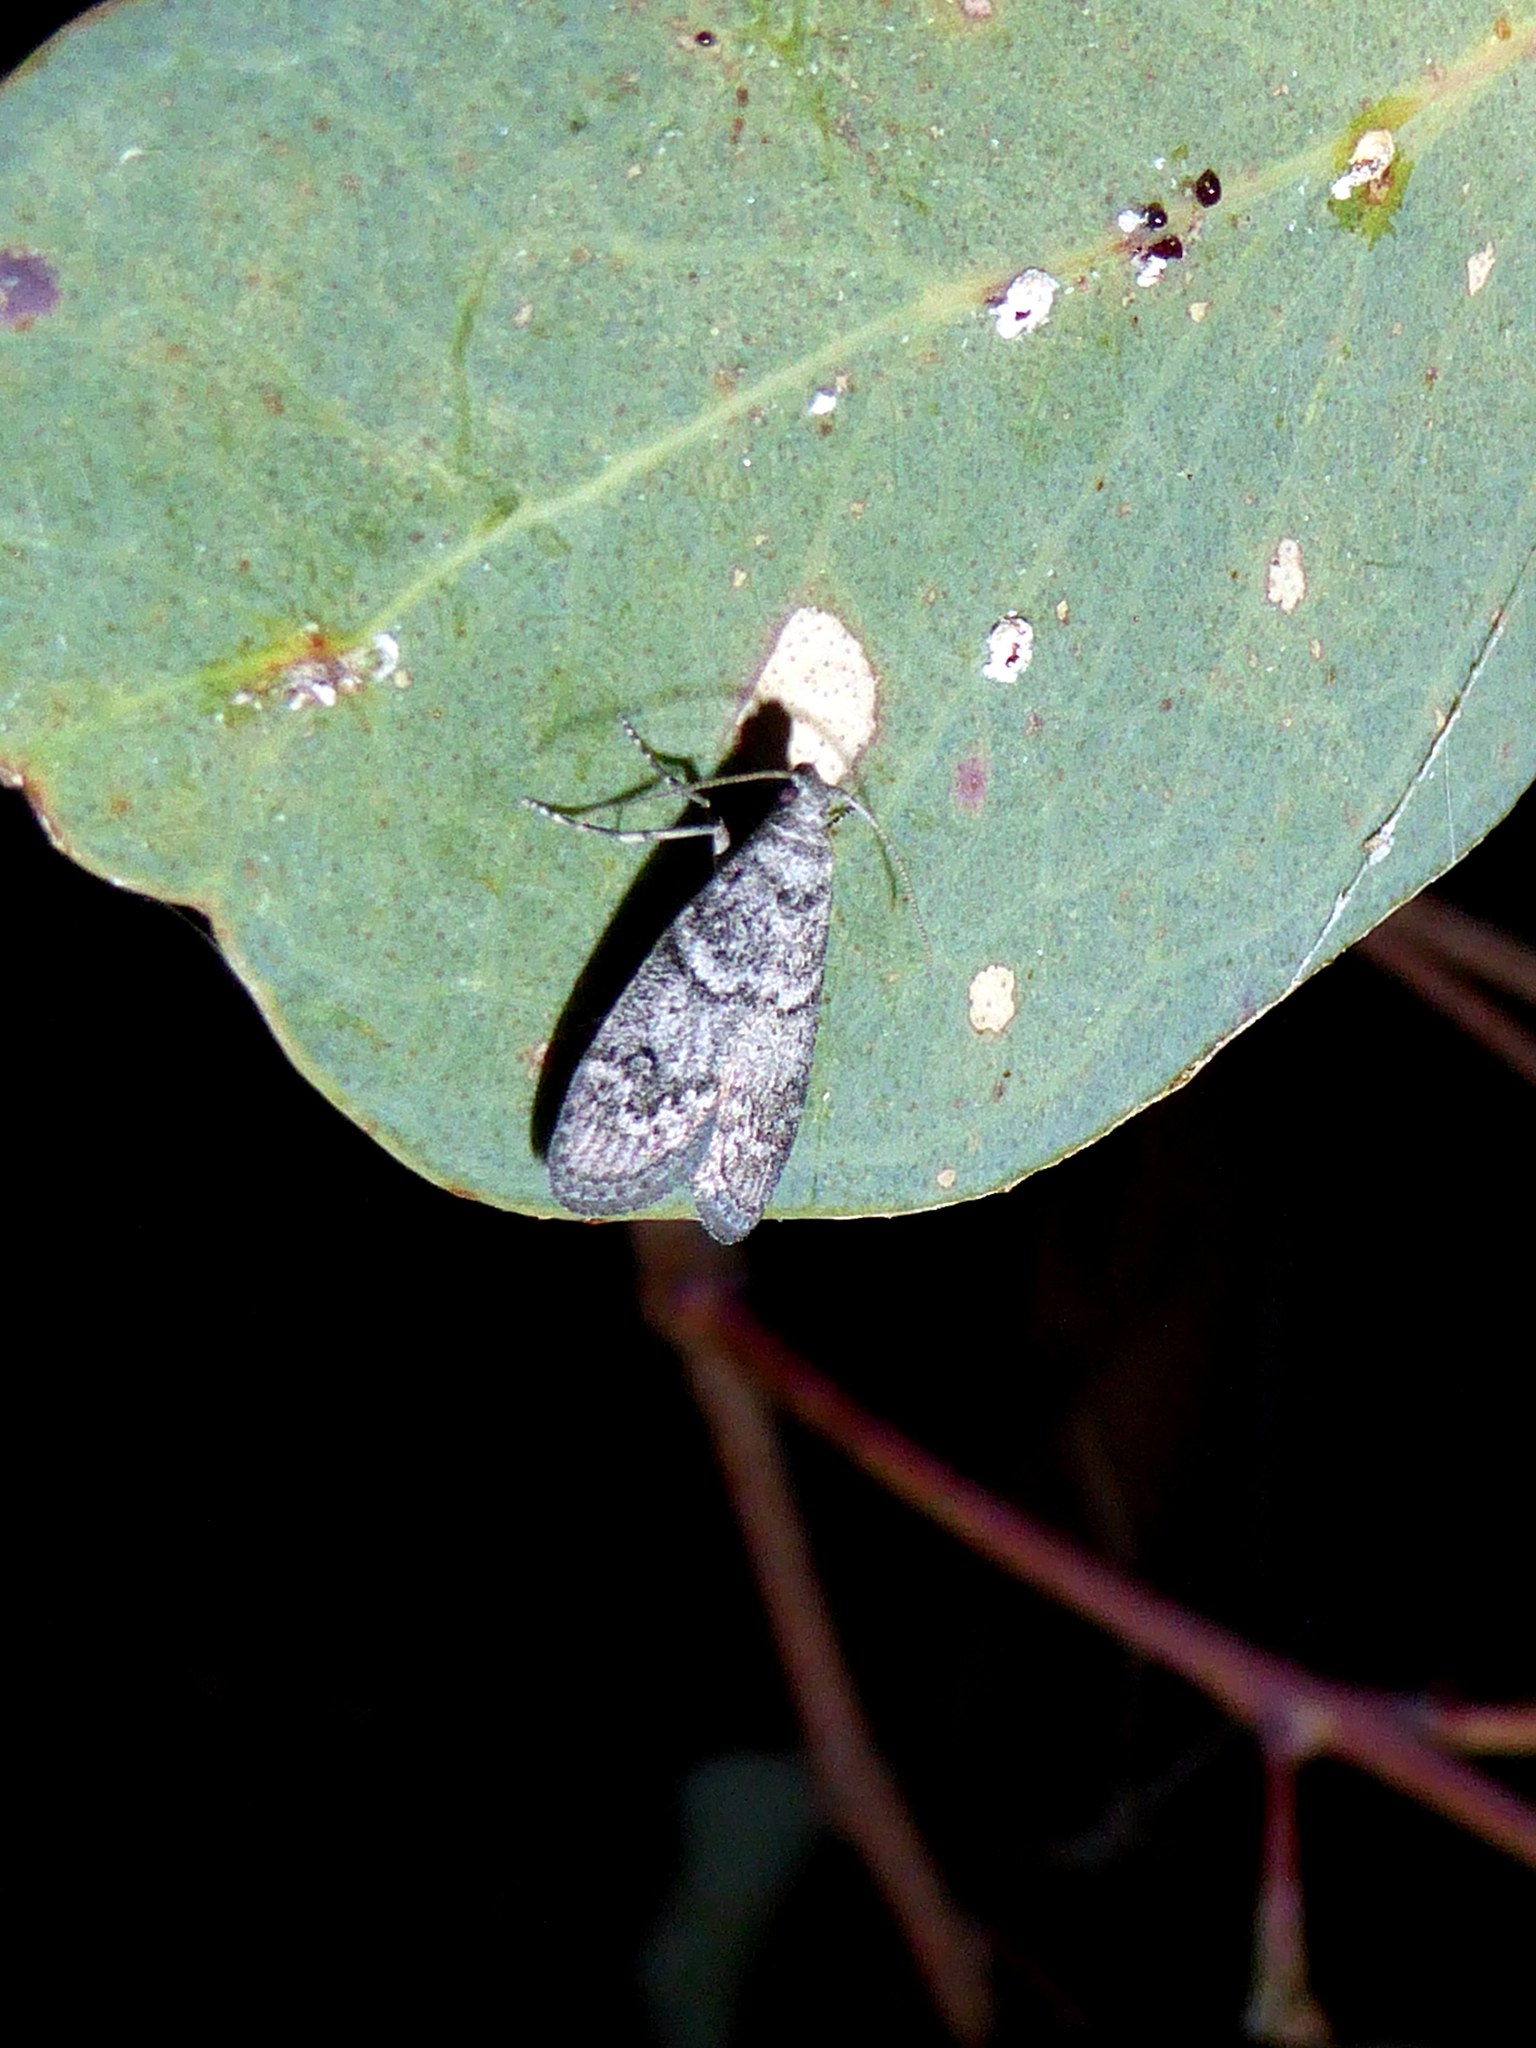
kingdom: Animalia
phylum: Arthropoda
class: Insecta
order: Lepidoptera
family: Pyralidae
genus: Heteromicta
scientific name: Heteromicta pachytera
